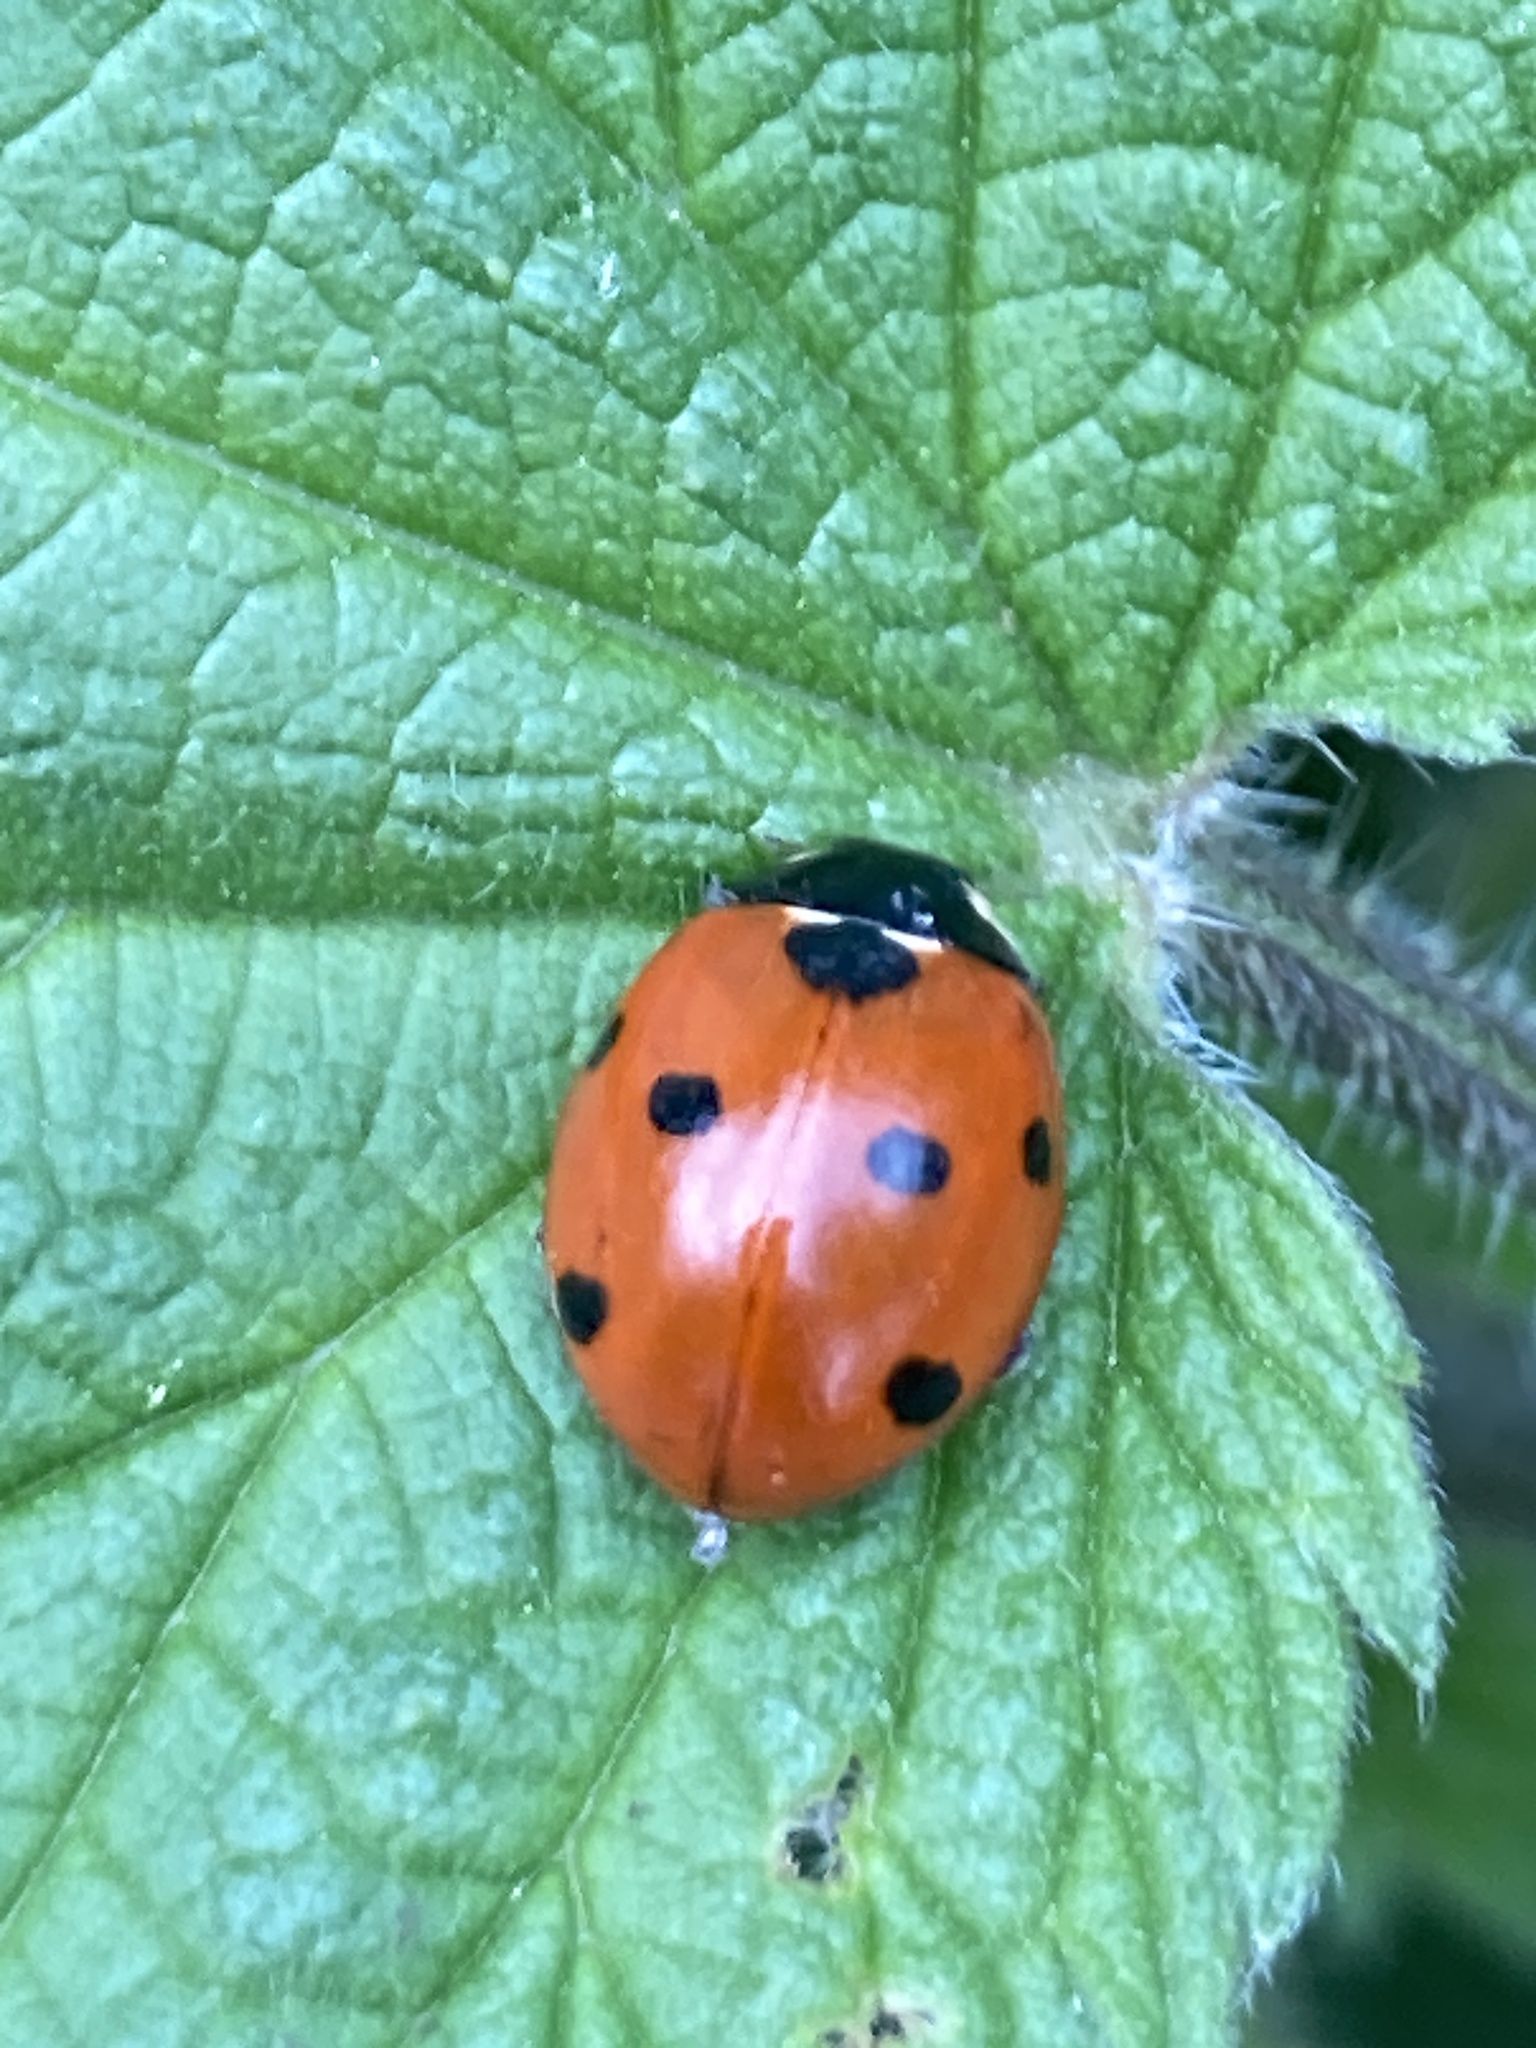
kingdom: Animalia
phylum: Arthropoda
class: Insecta
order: Coleoptera
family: Coccinellidae
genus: Coccinella
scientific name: Coccinella septempunctata
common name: Sevenspotted lady beetle
